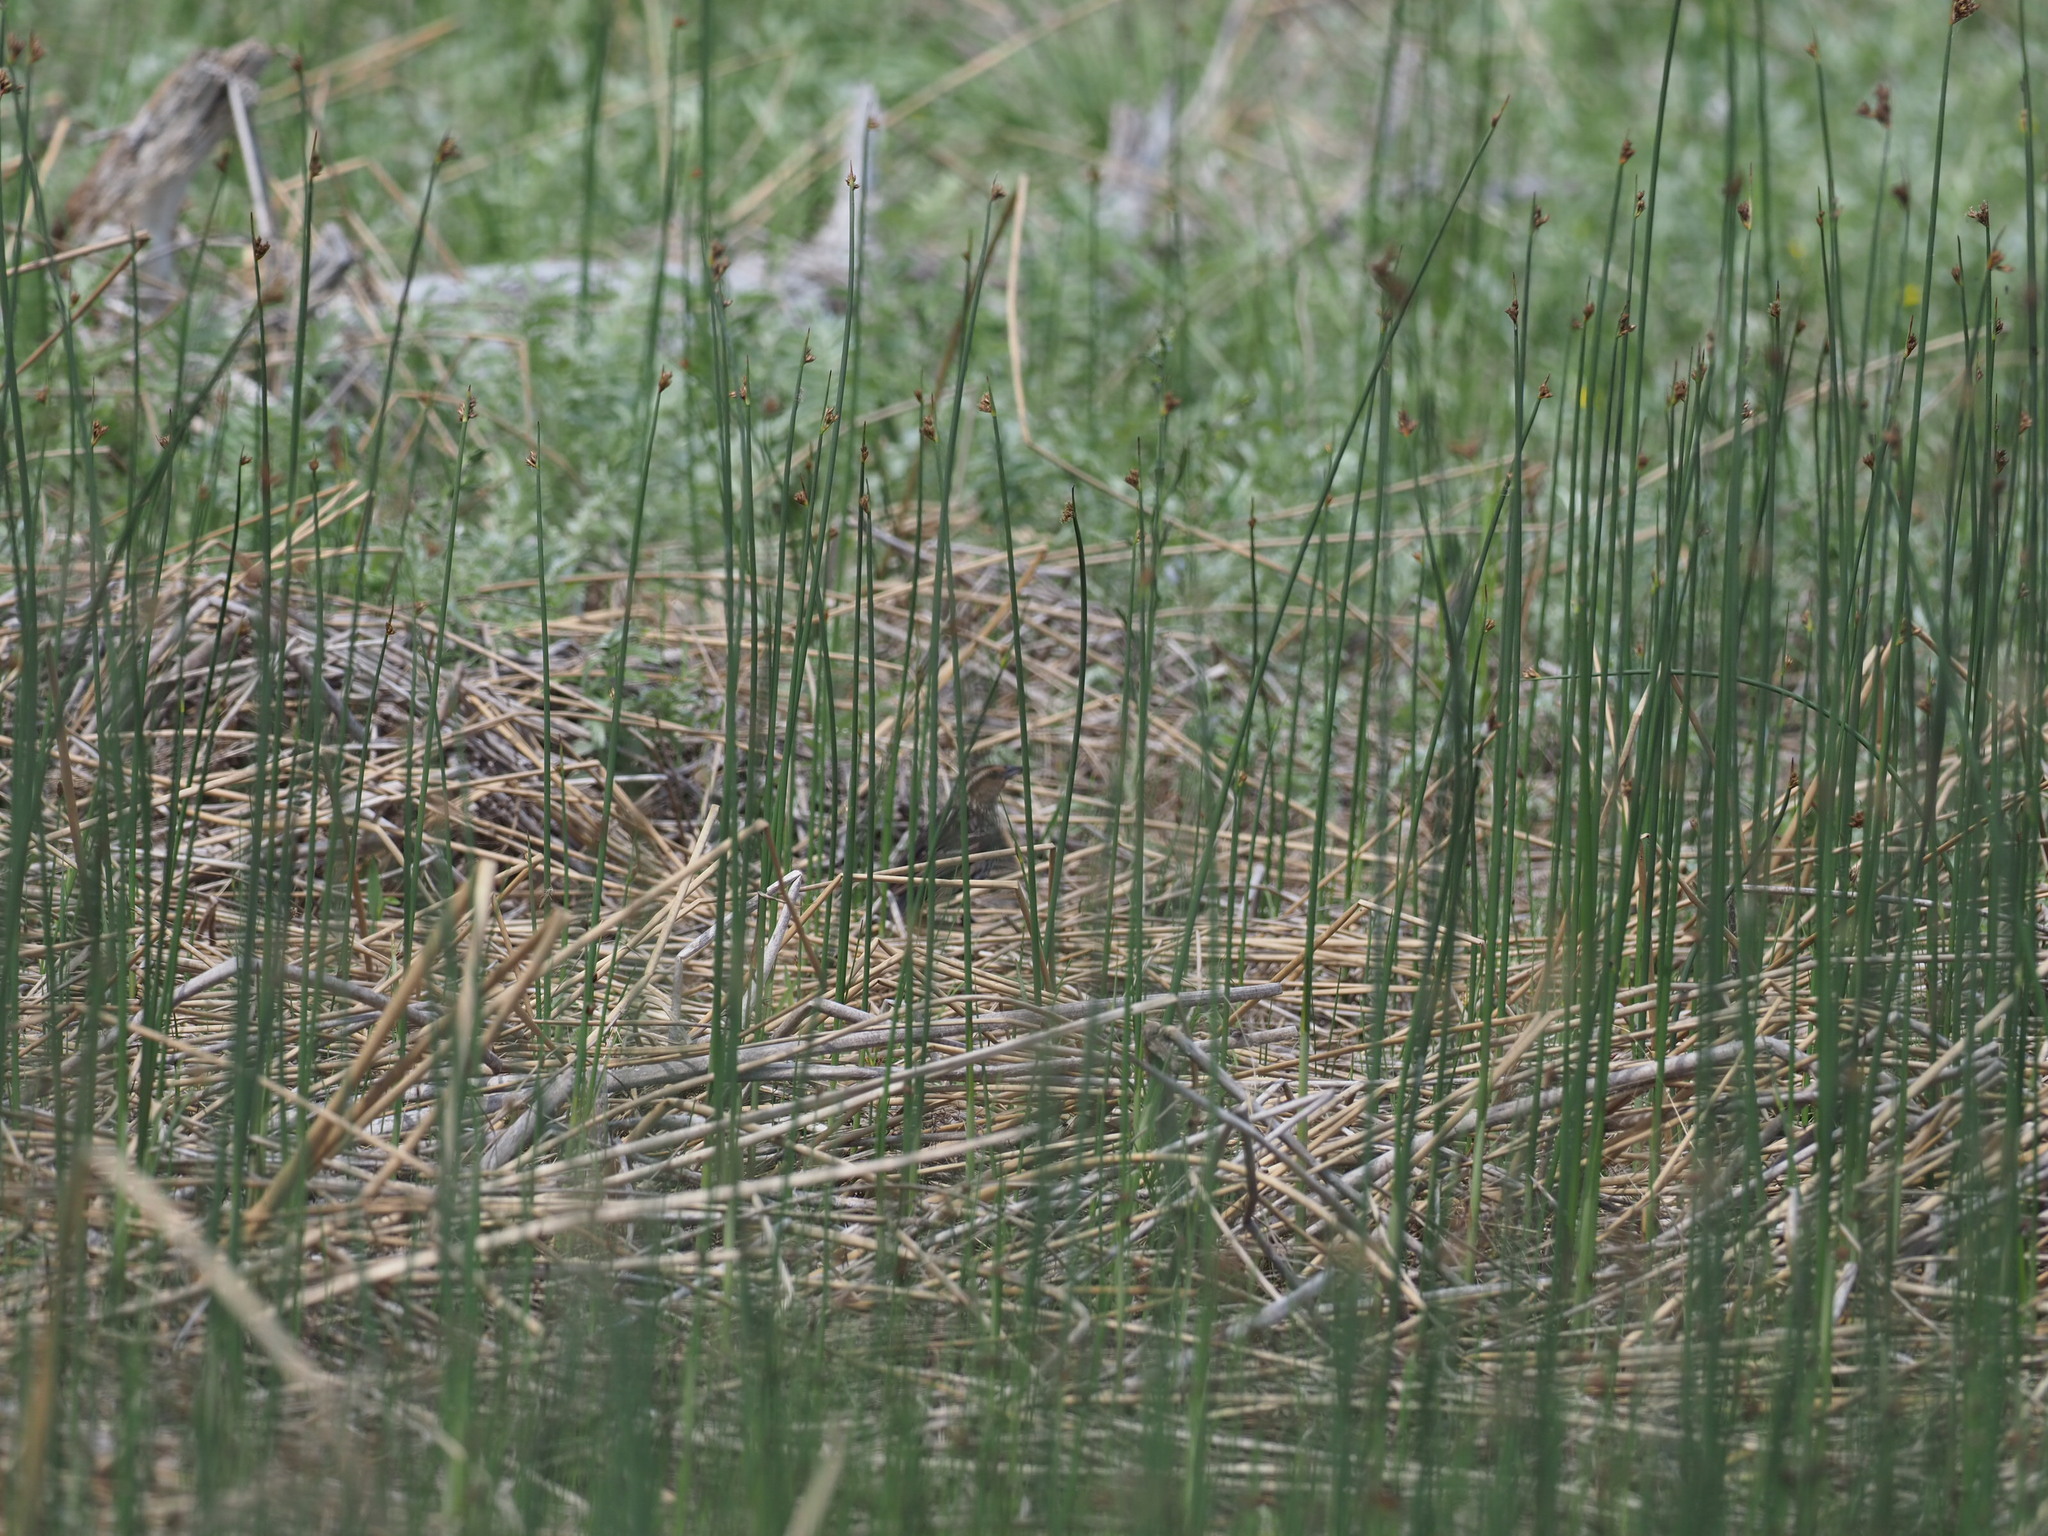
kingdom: Animalia
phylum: Chordata
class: Aves
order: Passeriformes
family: Icteridae
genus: Agelaius
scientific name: Agelaius phoeniceus
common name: Red-winged blackbird
